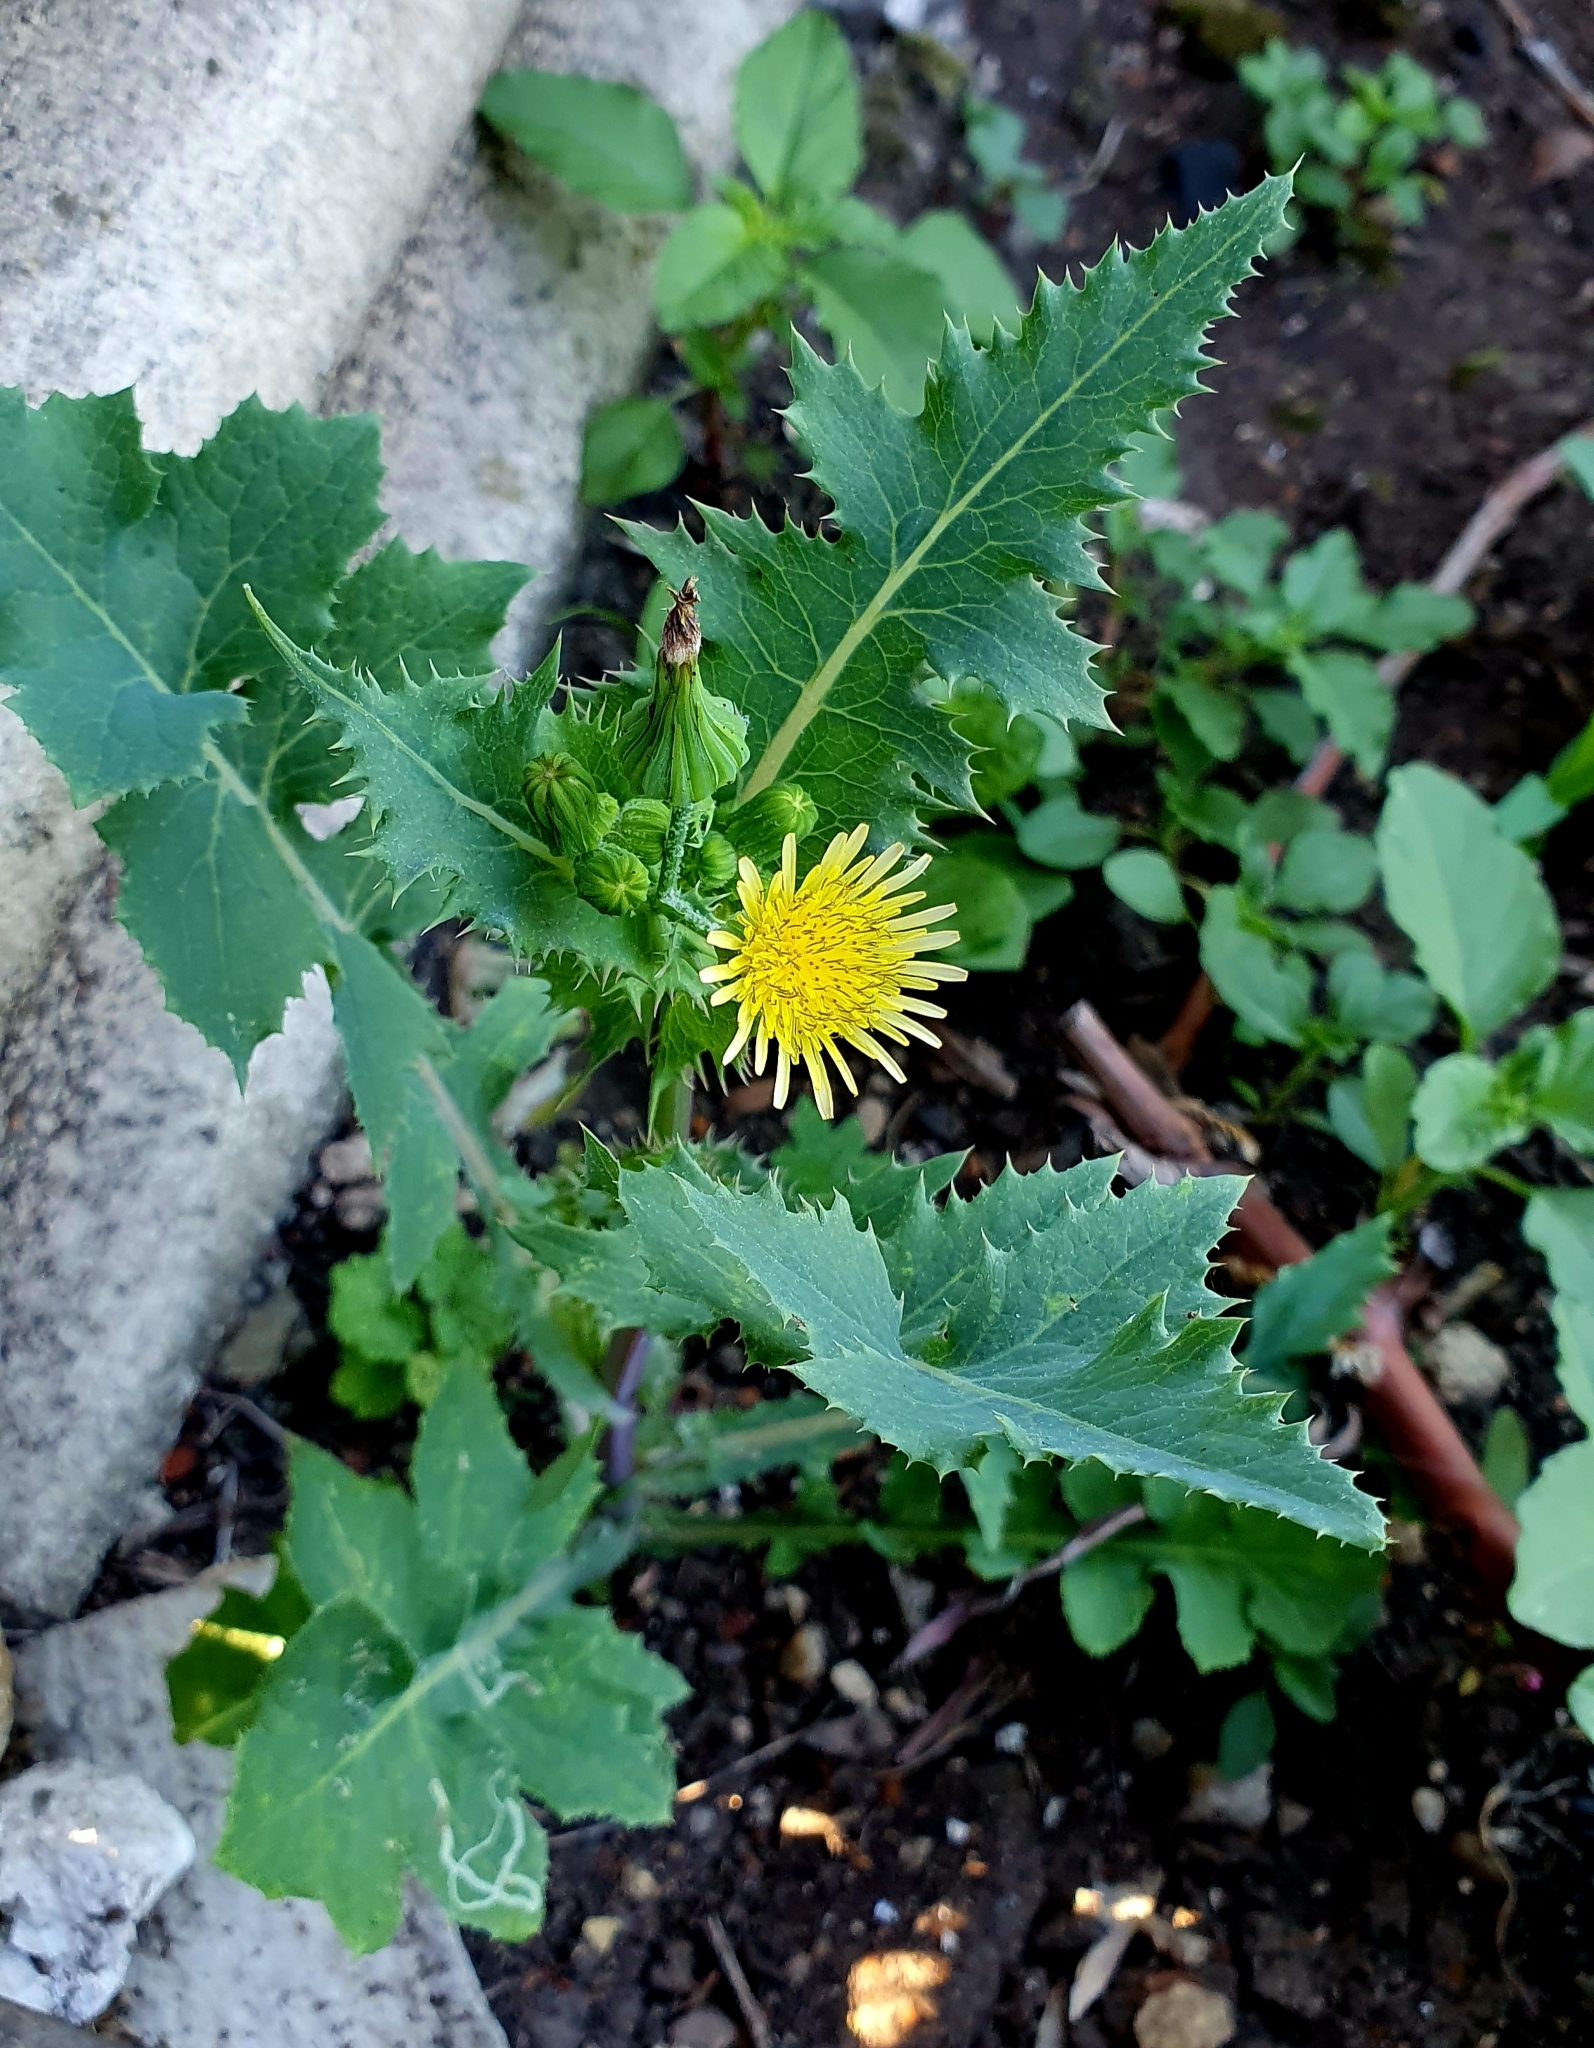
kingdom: Plantae
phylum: Tracheophyta
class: Magnoliopsida
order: Asterales
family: Asteraceae
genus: Sonchus
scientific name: Sonchus oleraceus
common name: Common sowthistle
